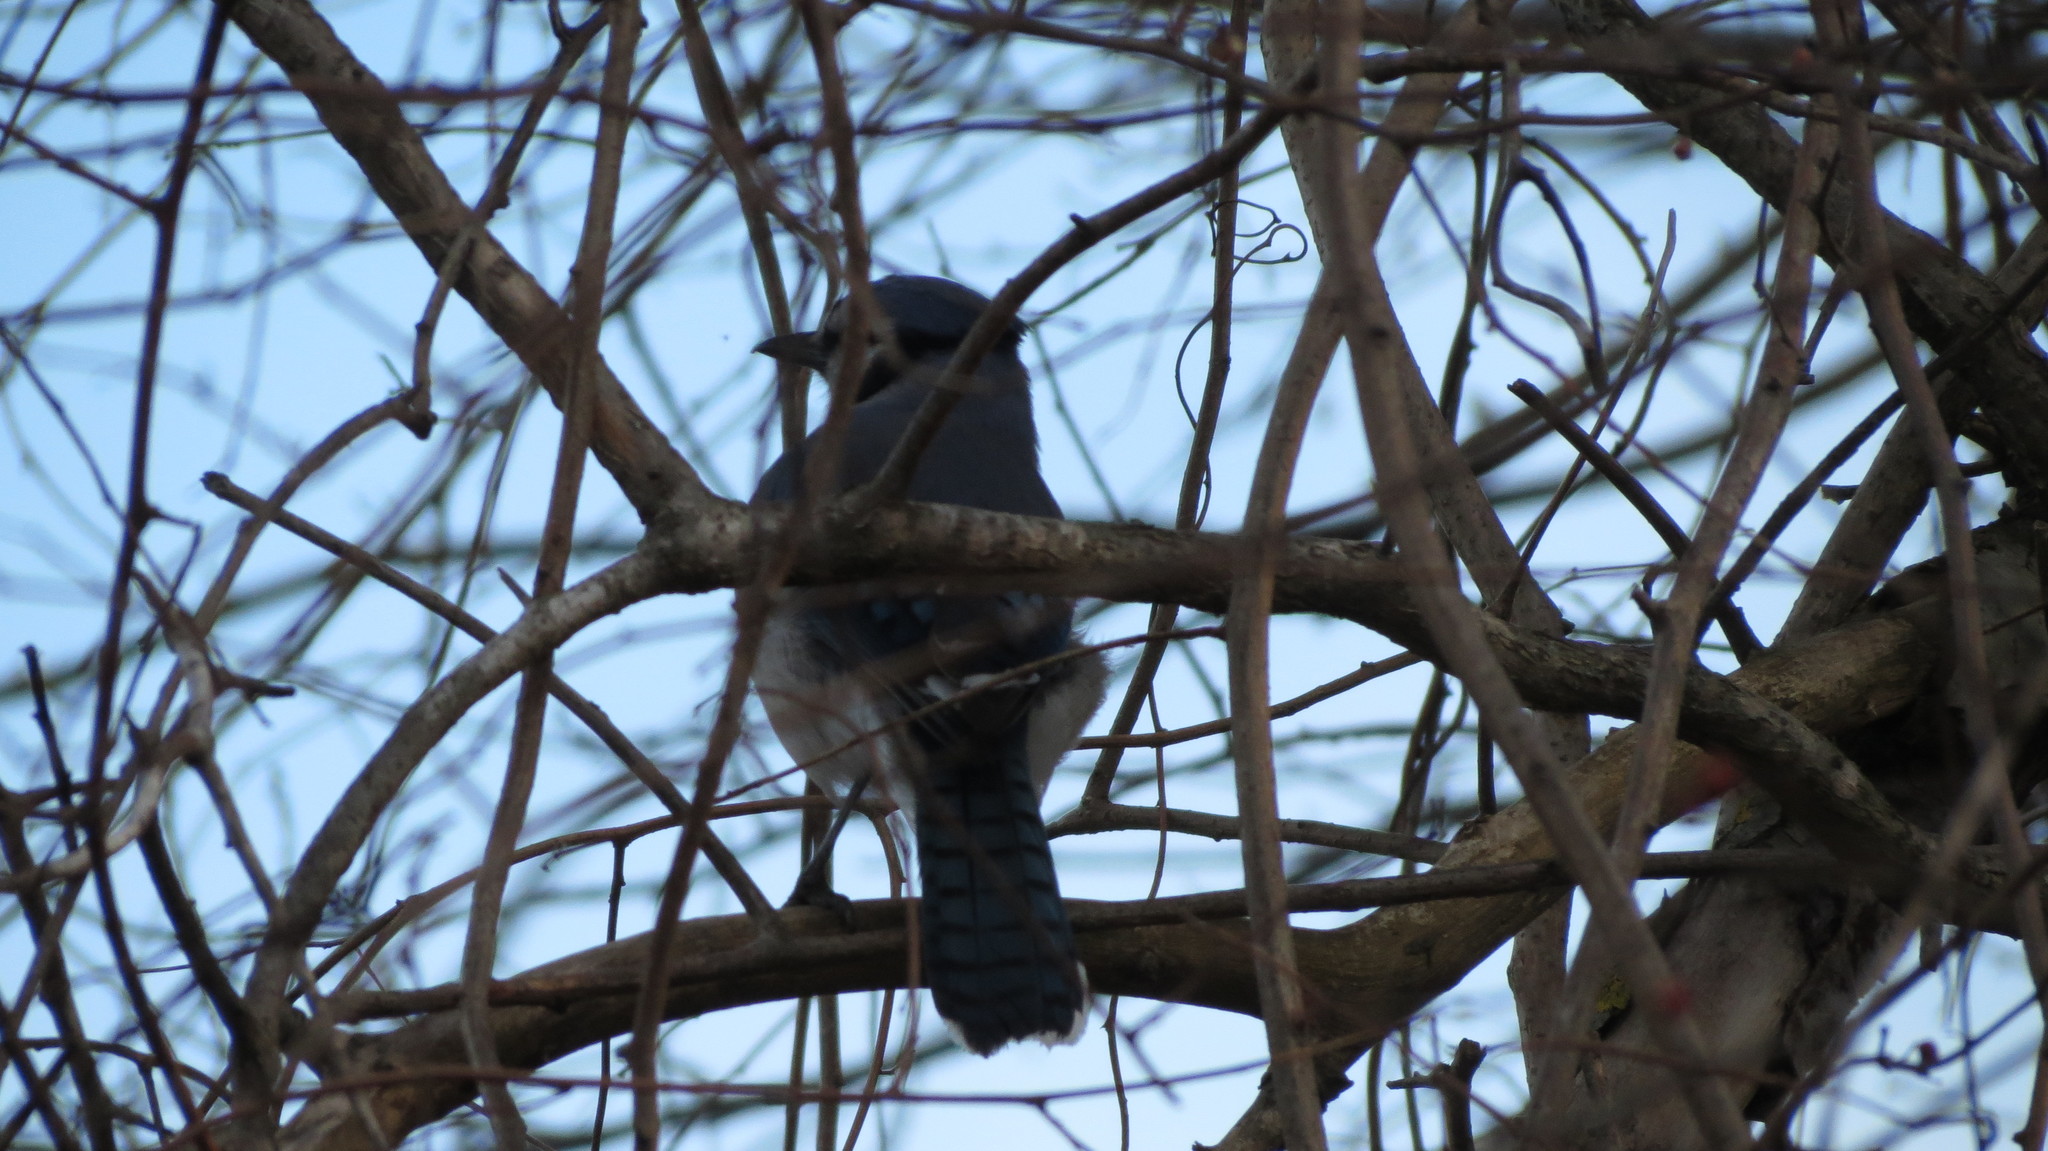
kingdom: Animalia
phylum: Chordata
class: Aves
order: Passeriformes
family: Corvidae
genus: Cyanocitta
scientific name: Cyanocitta cristata
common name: Blue jay
